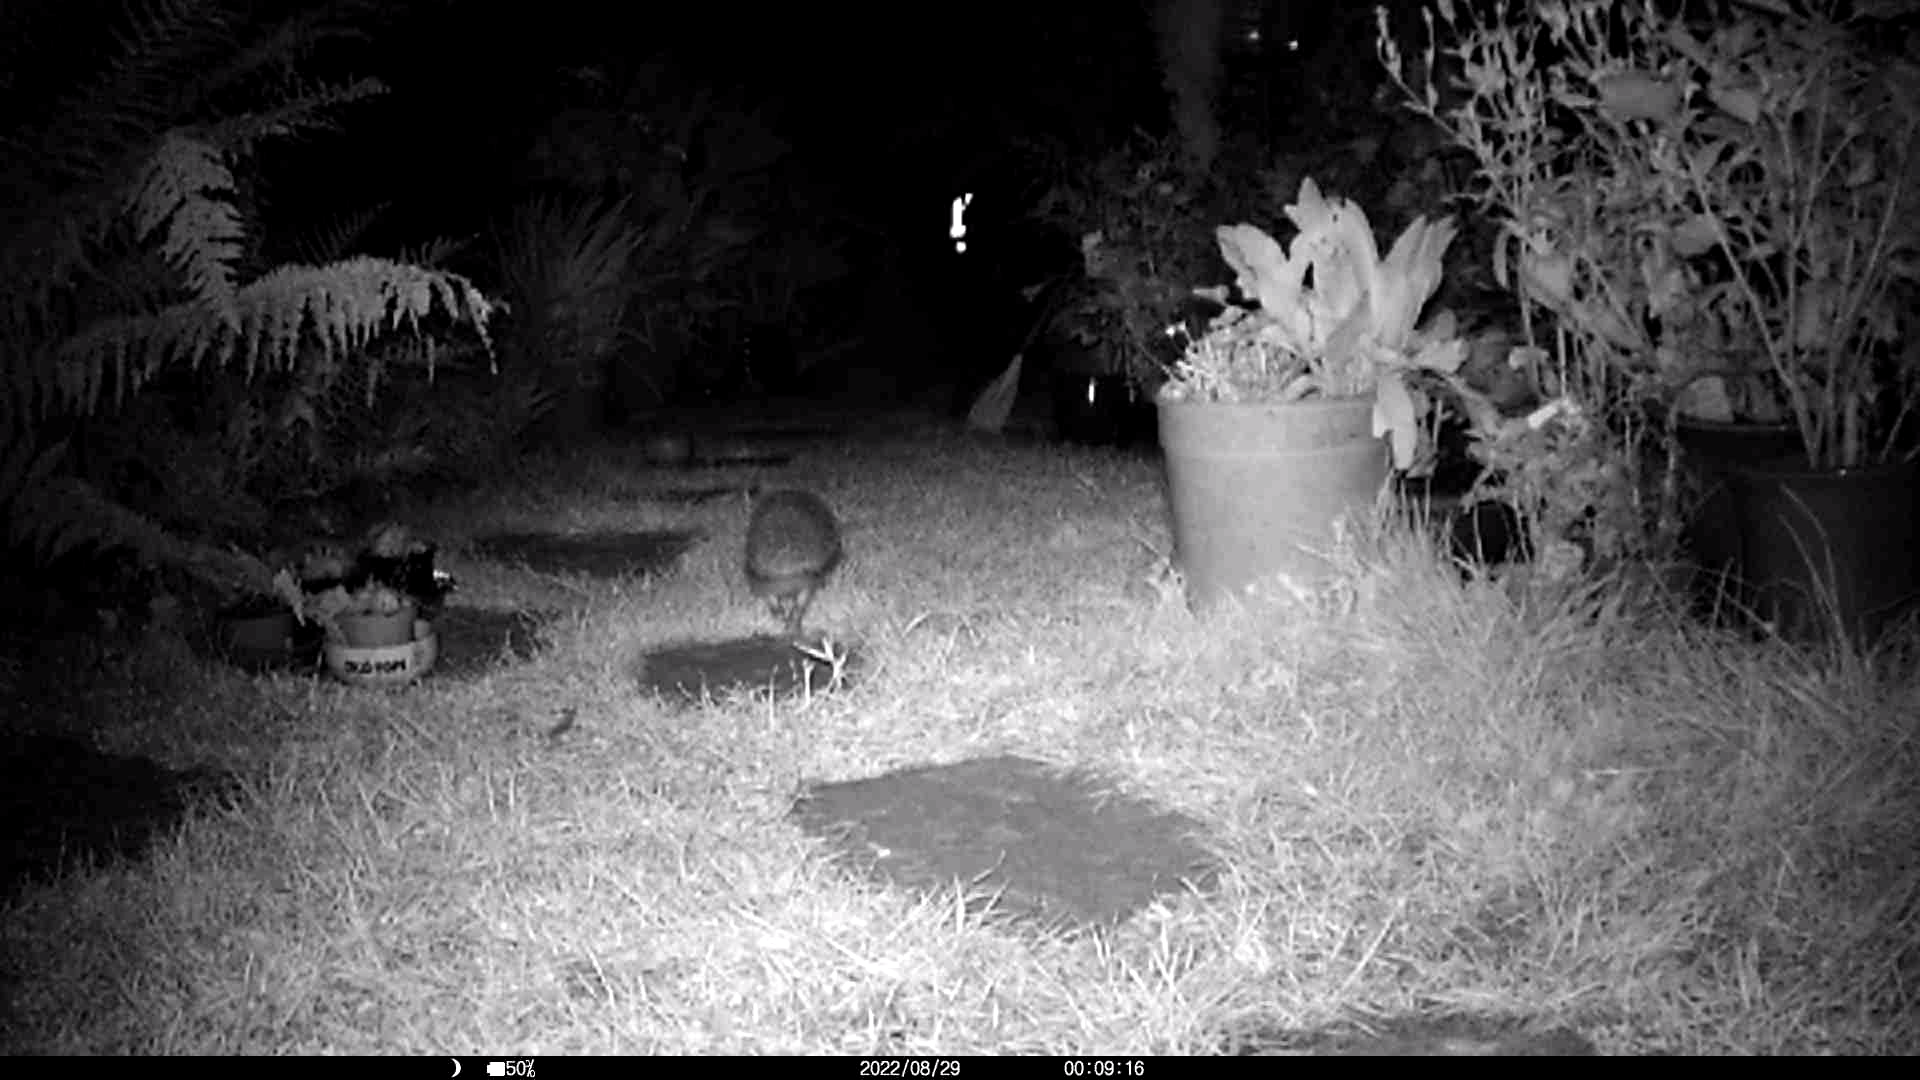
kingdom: Animalia
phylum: Chordata
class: Mammalia
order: Erinaceomorpha
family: Erinaceidae
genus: Erinaceus
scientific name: Erinaceus europaeus
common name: West european hedgehog
